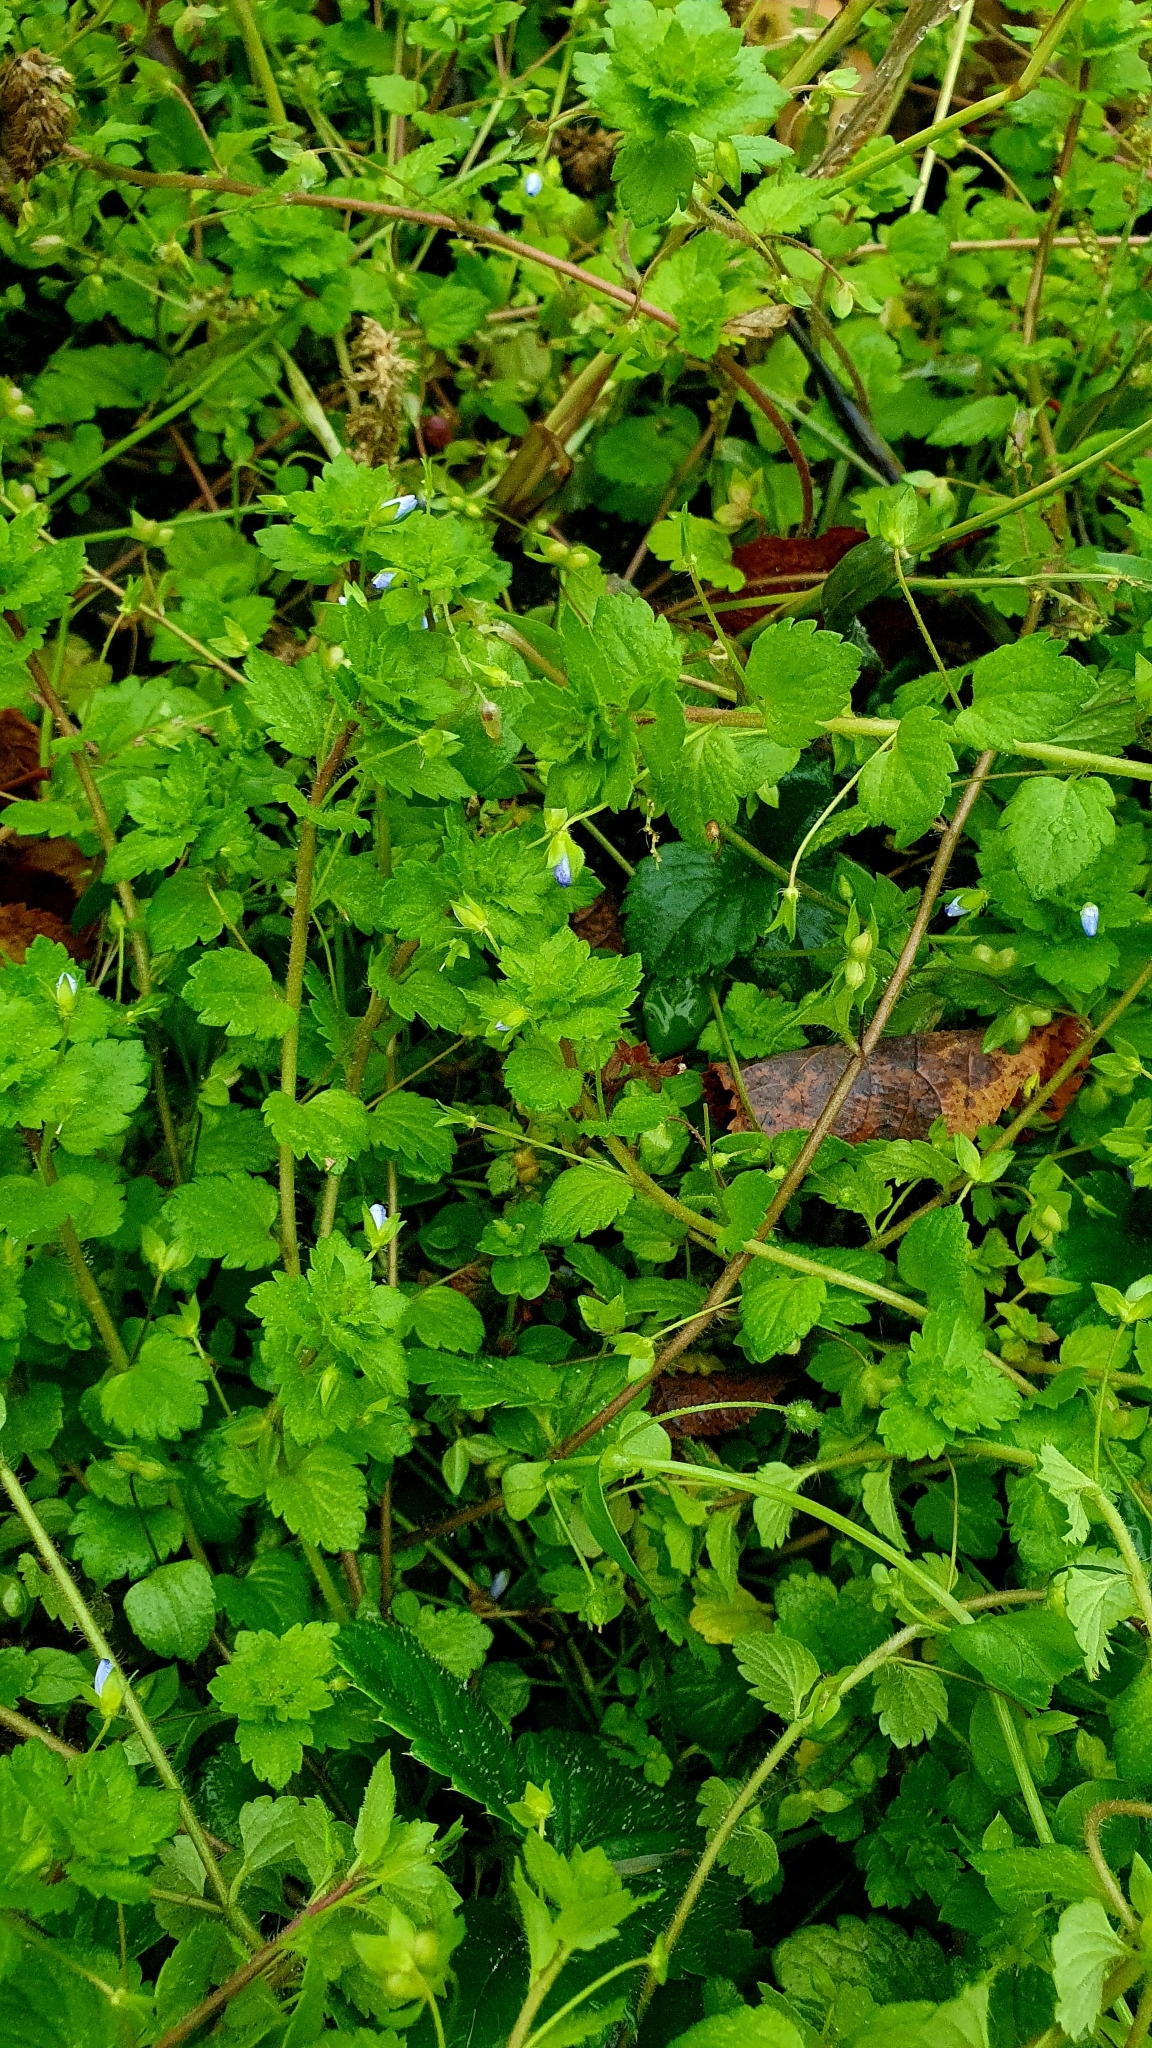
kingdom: Plantae
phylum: Tracheophyta
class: Magnoliopsida
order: Lamiales
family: Plantaginaceae
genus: Veronica
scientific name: Veronica persica
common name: Common field-speedwell
